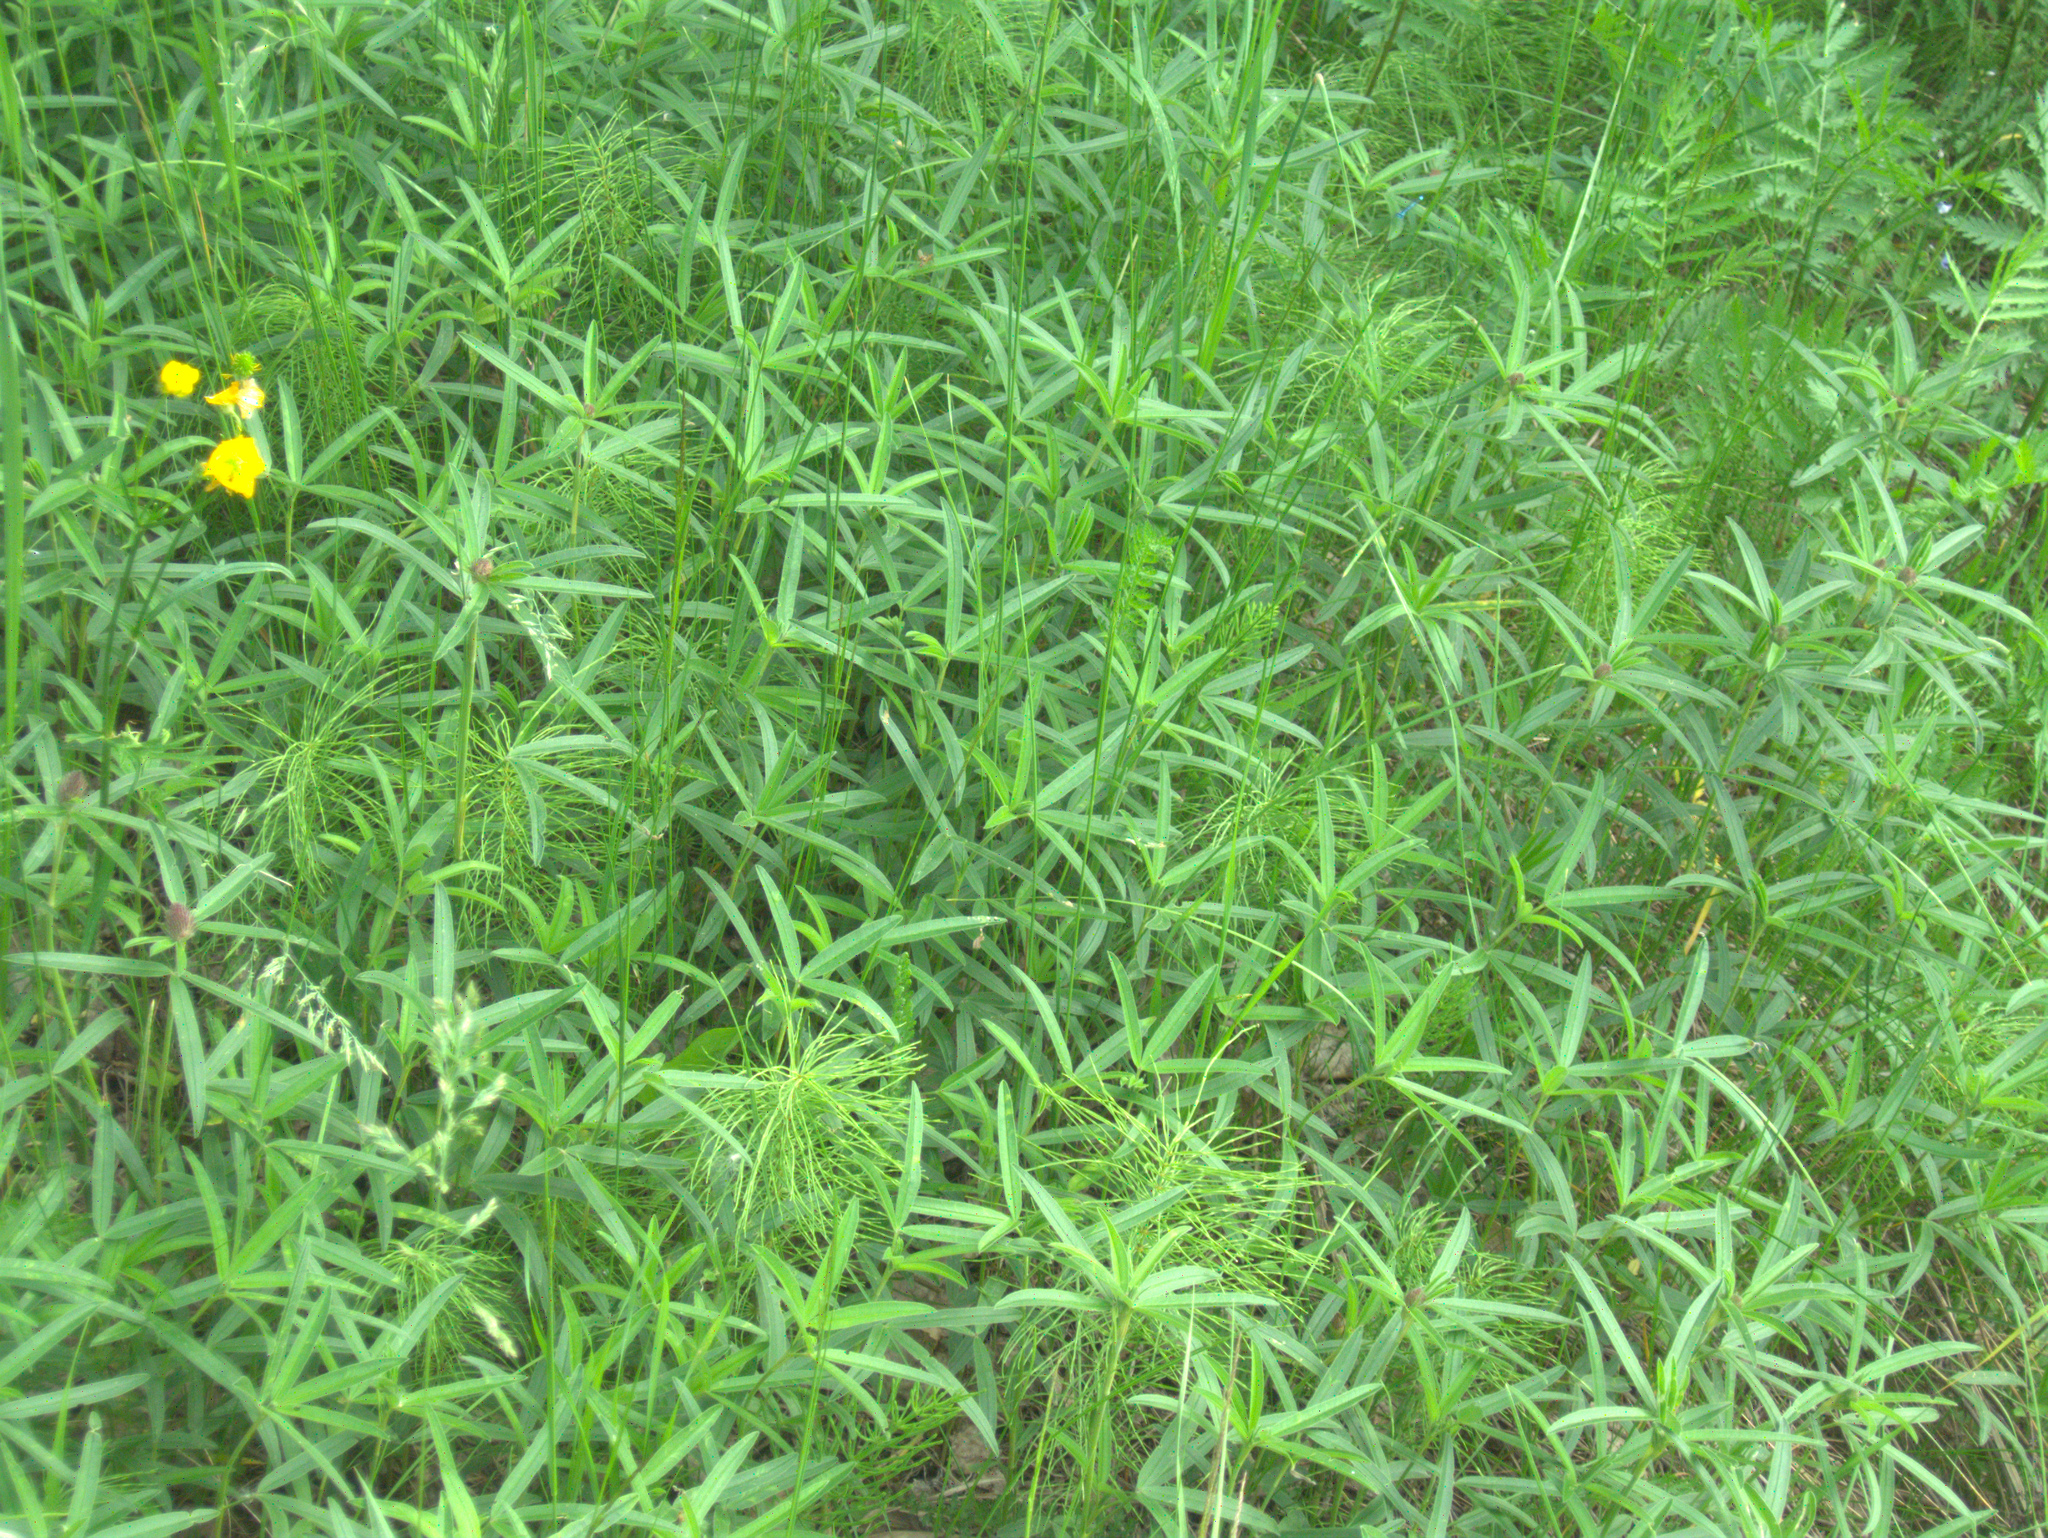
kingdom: Plantae
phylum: Tracheophyta
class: Magnoliopsida
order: Fabales
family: Fabaceae
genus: Trifolium
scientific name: Trifolium alpestre
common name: Owl-head clover
